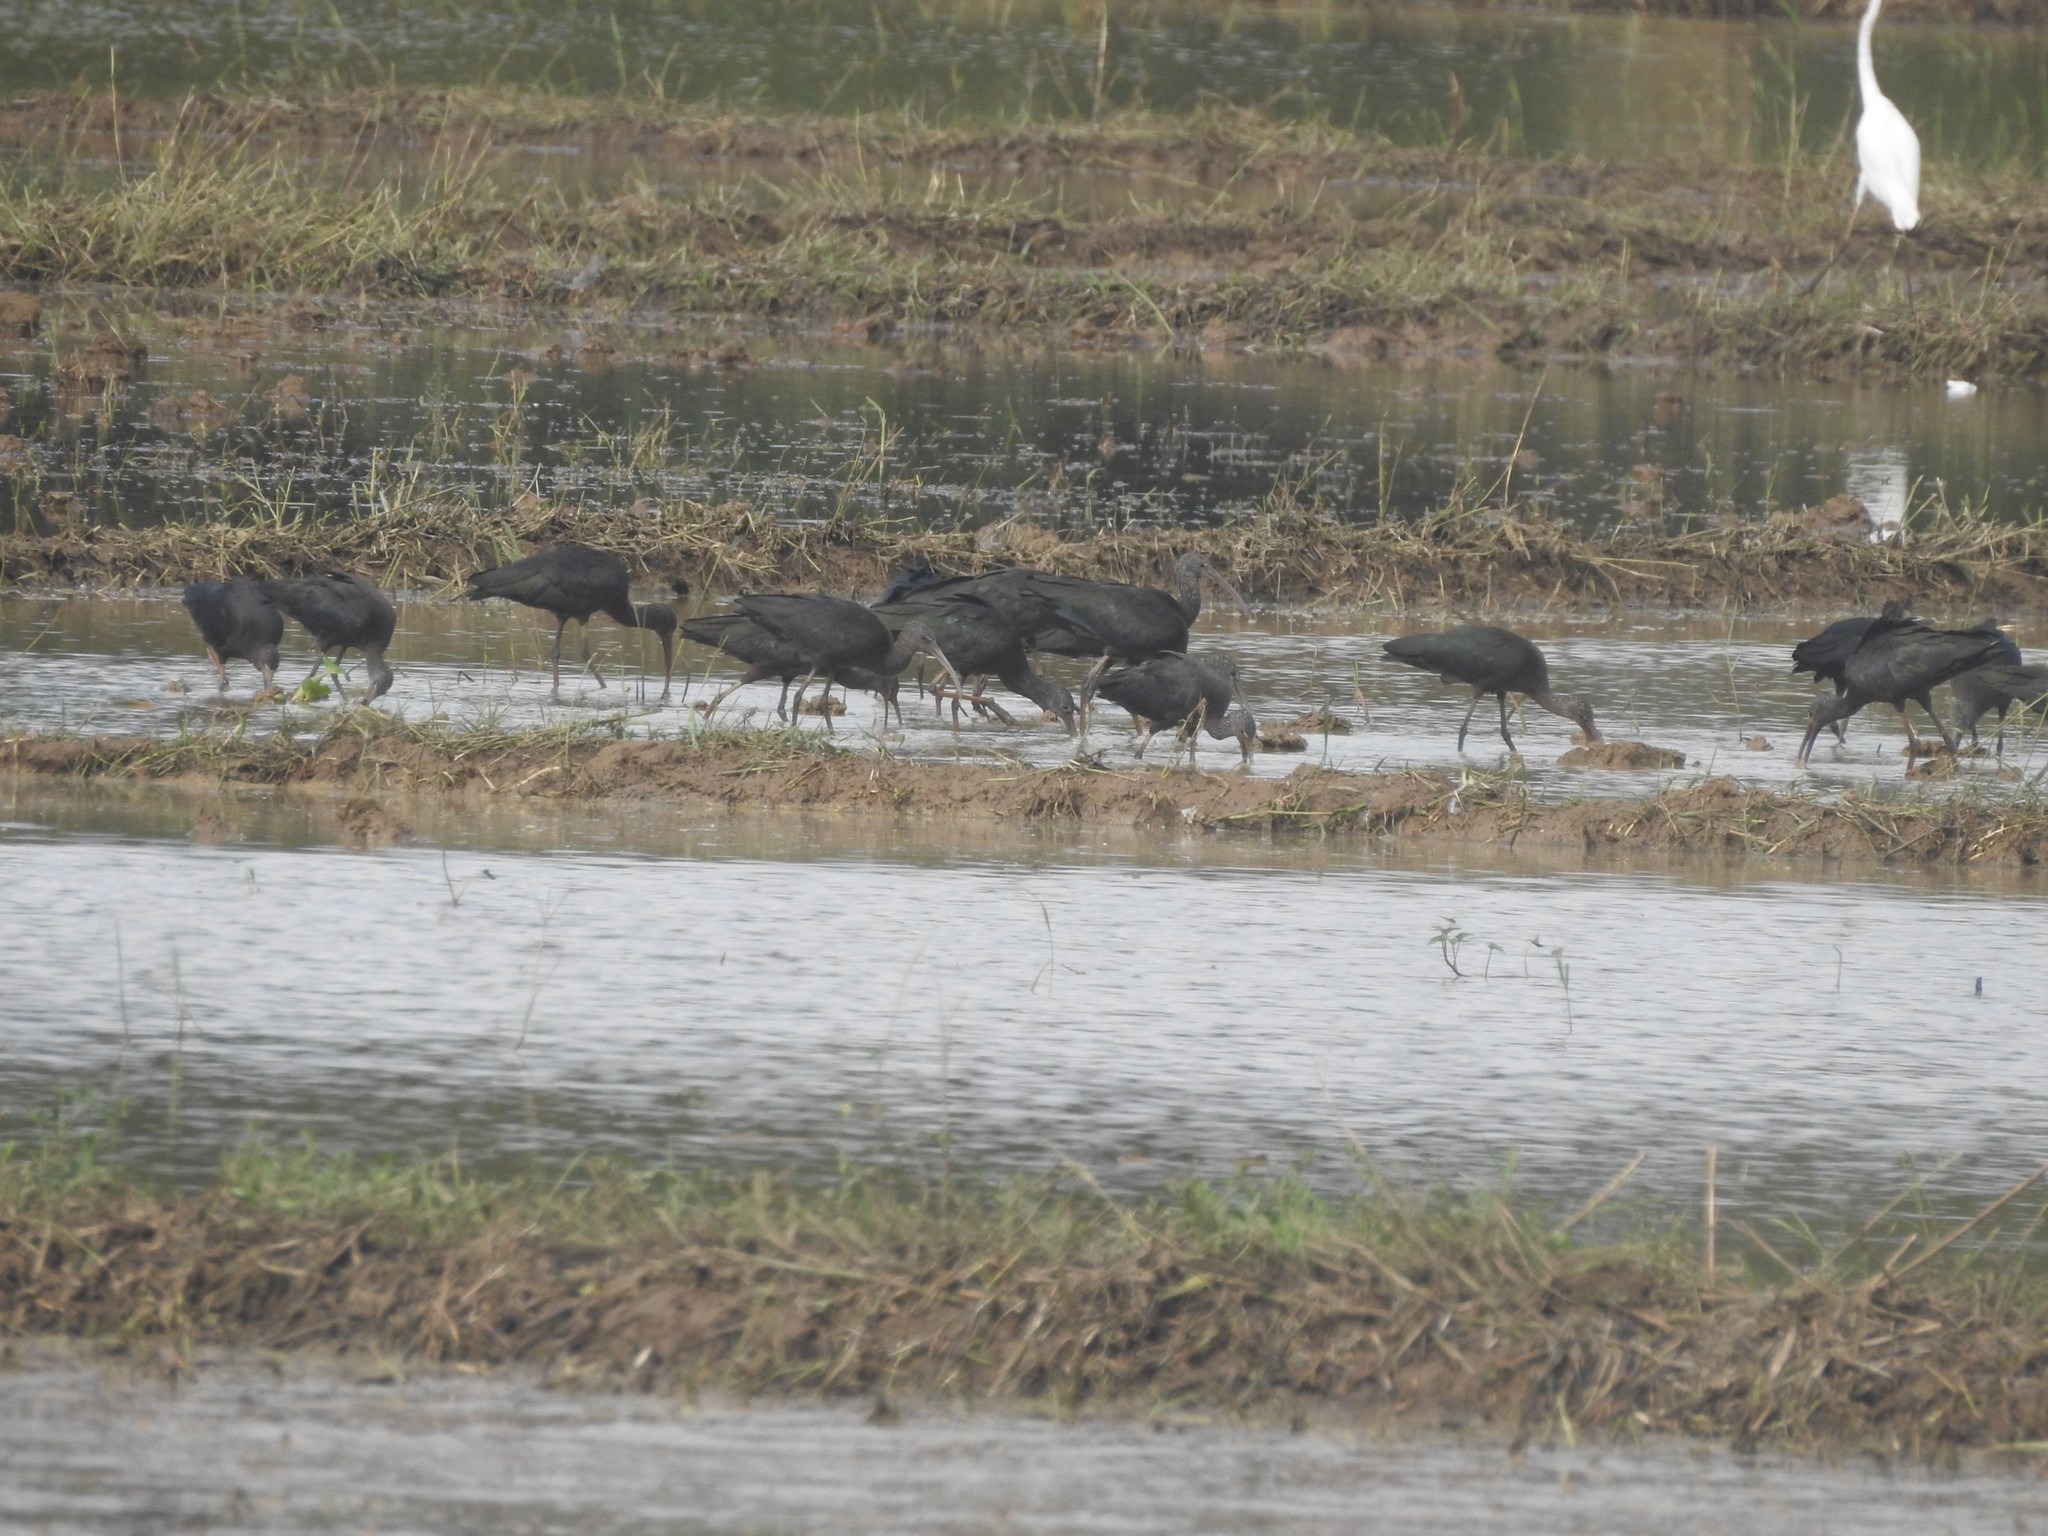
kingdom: Animalia
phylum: Chordata
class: Aves
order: Pelecaniformes
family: Threskiornithidae
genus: Plegadis
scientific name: Plegadis falcinellus
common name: Glossy ibis
